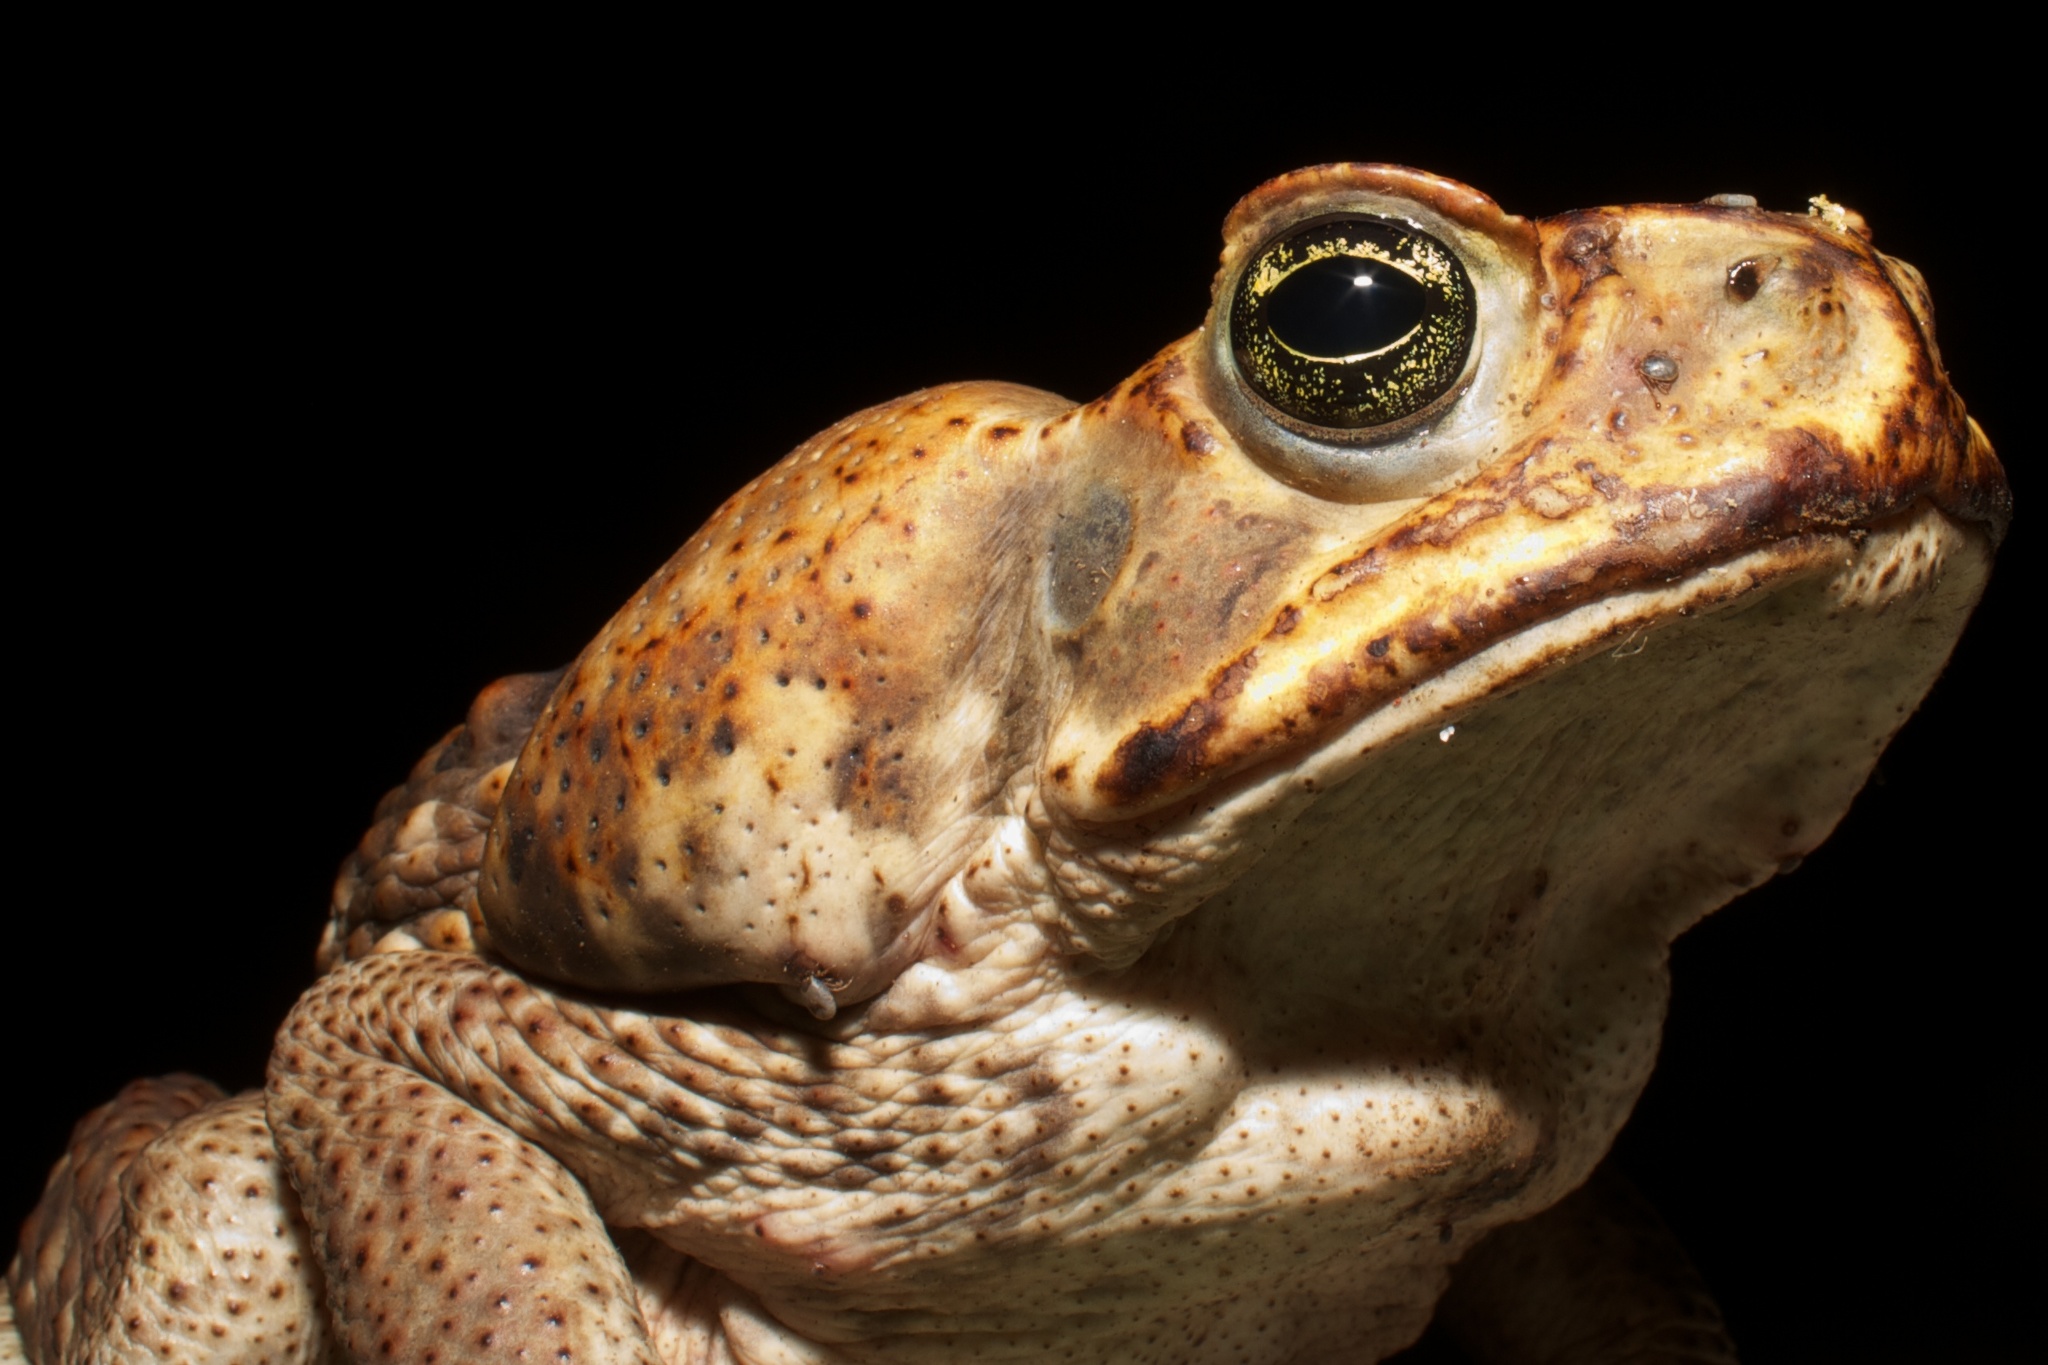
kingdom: Animalia
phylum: Chordata
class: Amphibia
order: Anura
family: Bufonidae
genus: Rhinella
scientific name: Rhinella horribilis
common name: Mesoamerican cane toad
